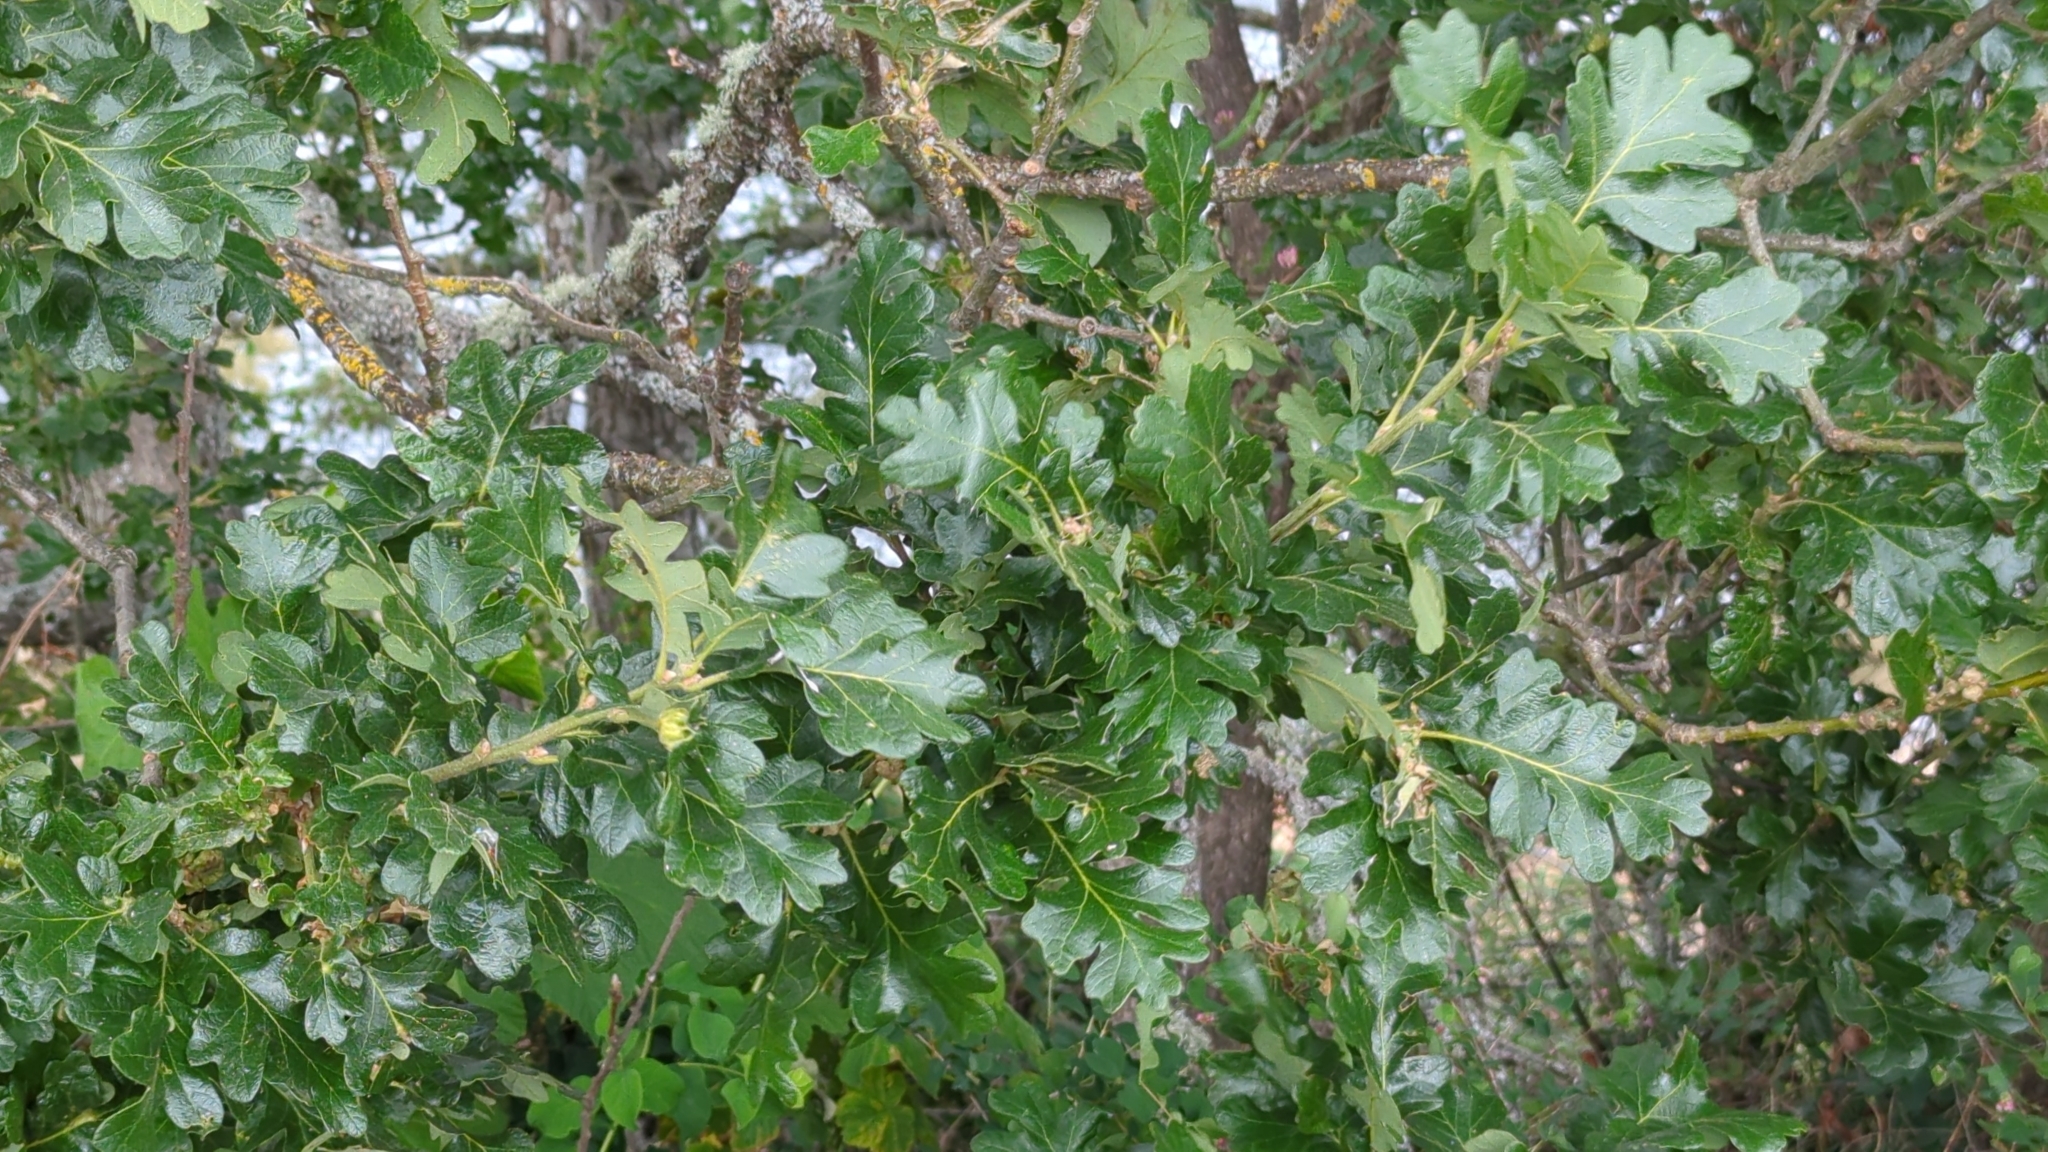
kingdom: Plantae
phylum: Tracheophyta
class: Magnoliopsida
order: Fagales
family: Fagaceae
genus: Quercus
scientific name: Quercus garryana
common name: Garry oak
